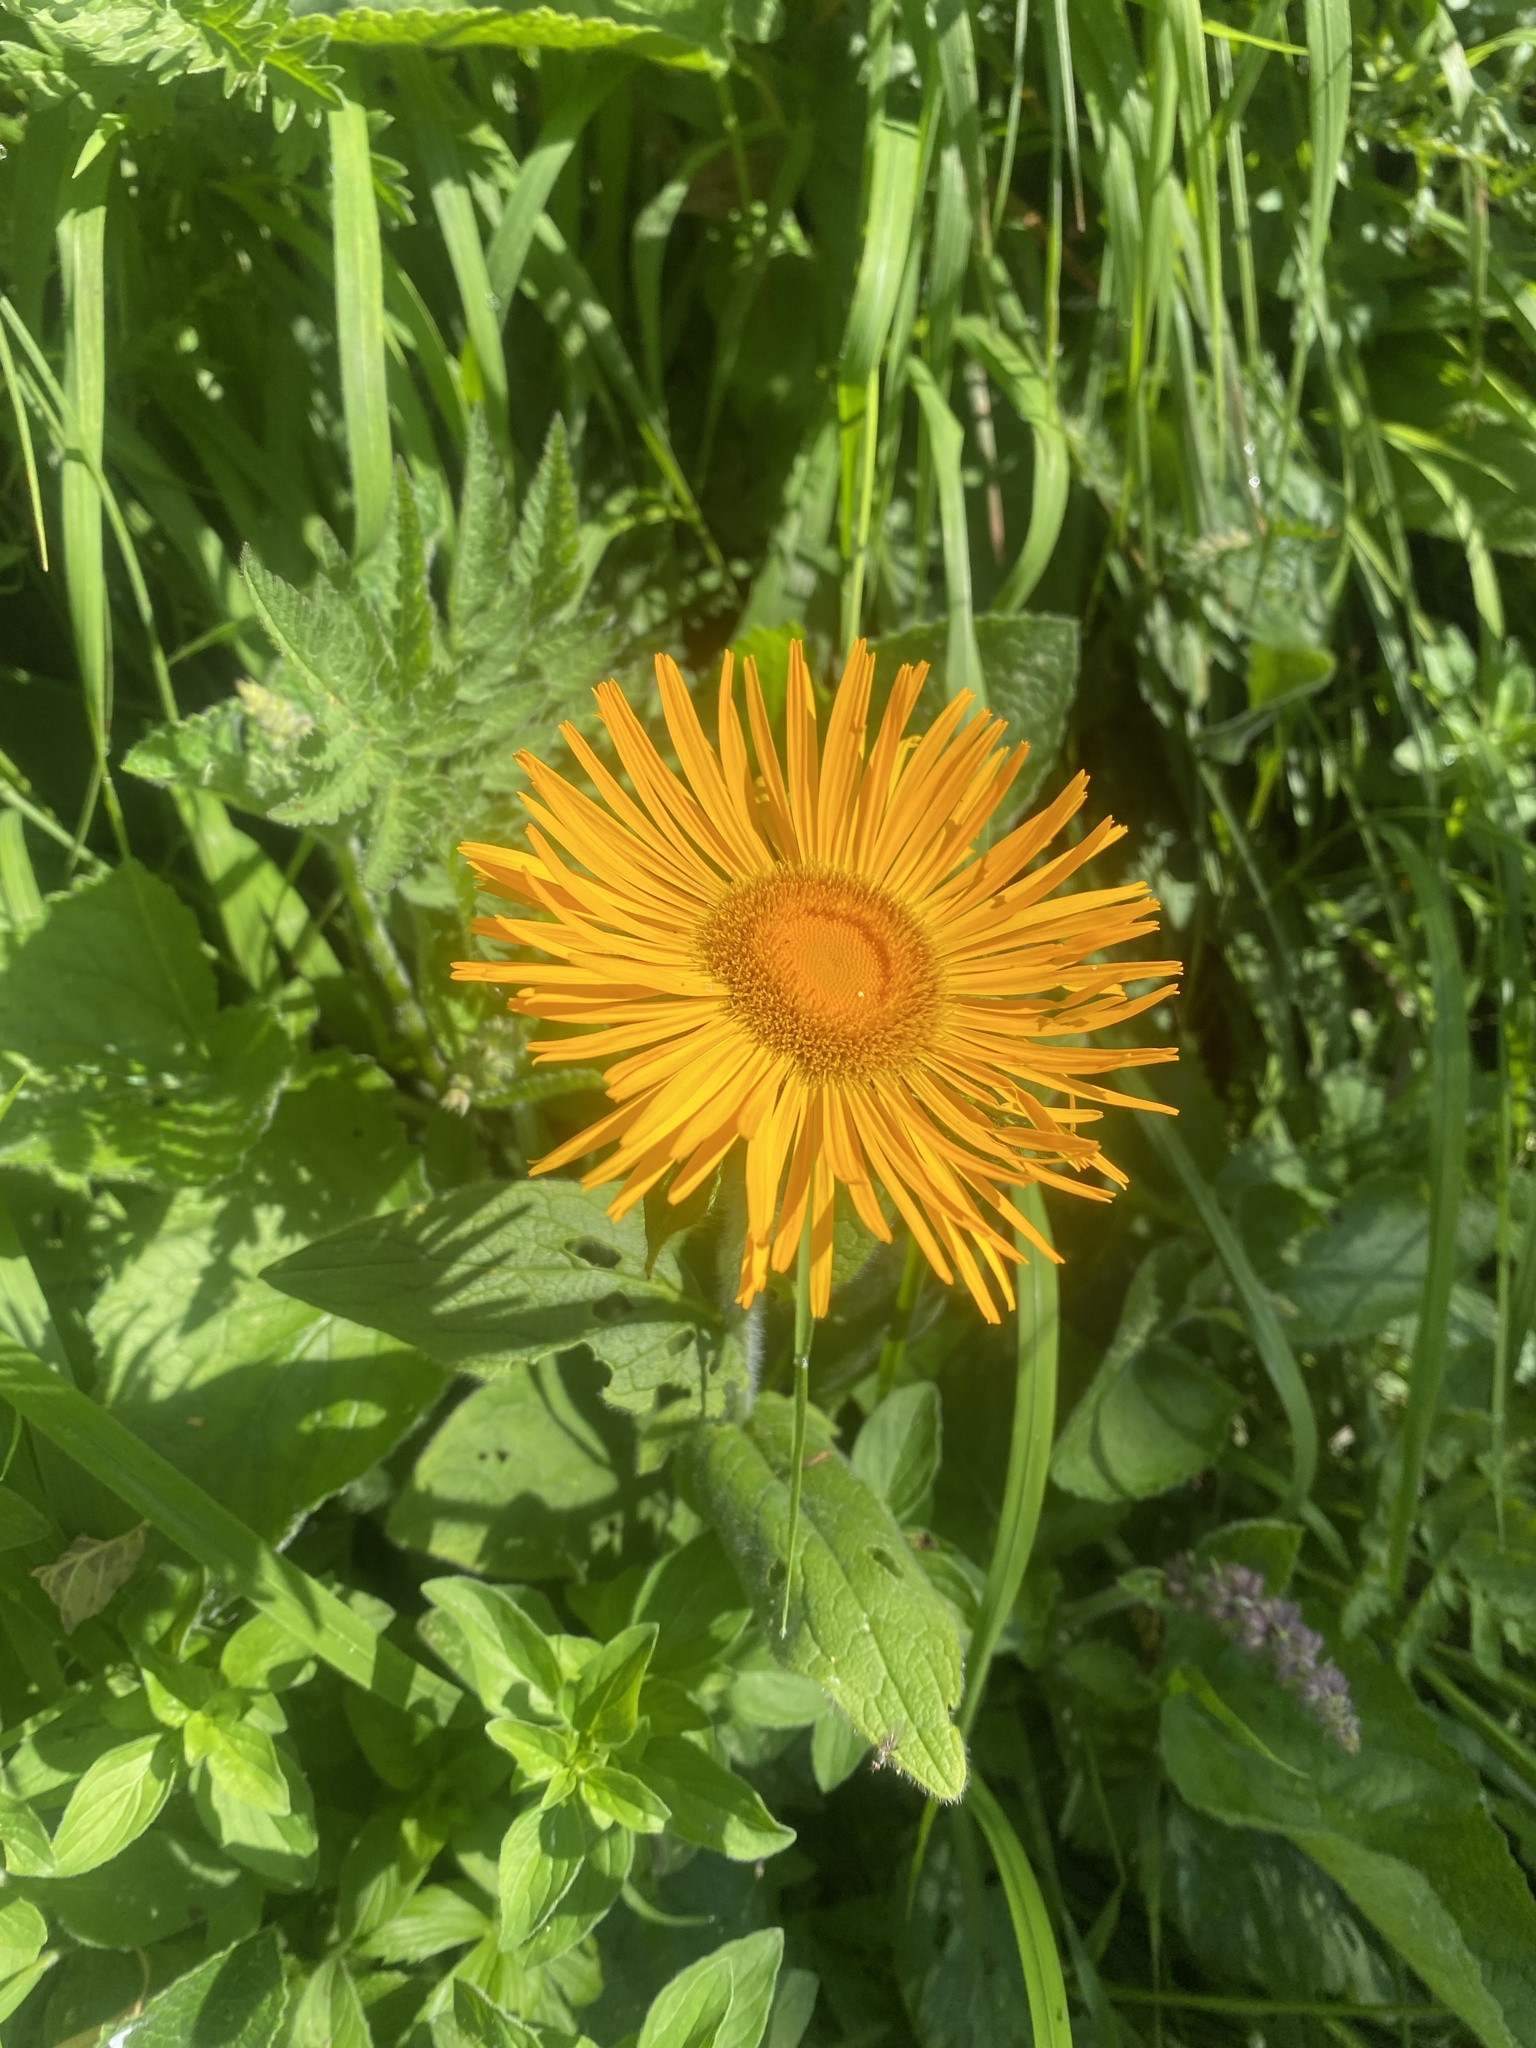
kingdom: Plantae
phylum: Tracheophyta
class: Magnoliopsida
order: Asterales
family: Asteraceae
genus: Pentanema
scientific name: Pentanema orientale
